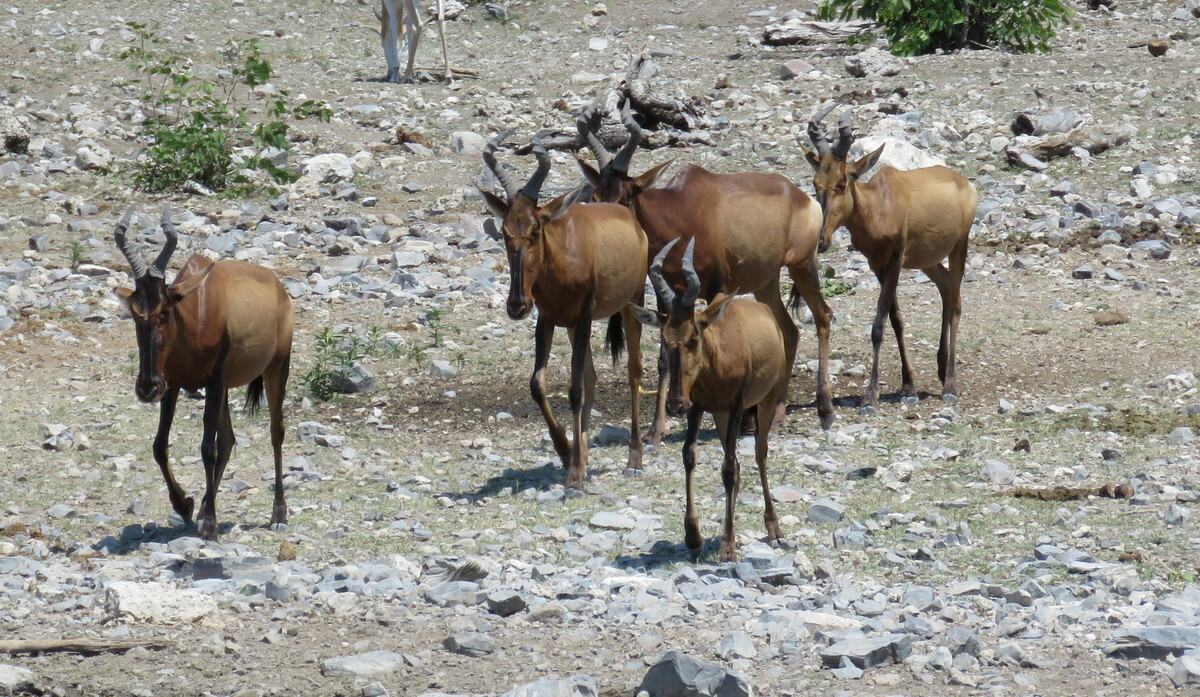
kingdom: Animalia
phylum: Chordata
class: Mammalia
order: Artiodactyla
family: Bovidae
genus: Alcelaphus
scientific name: Alcelaphus caama
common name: Red hartebeest
